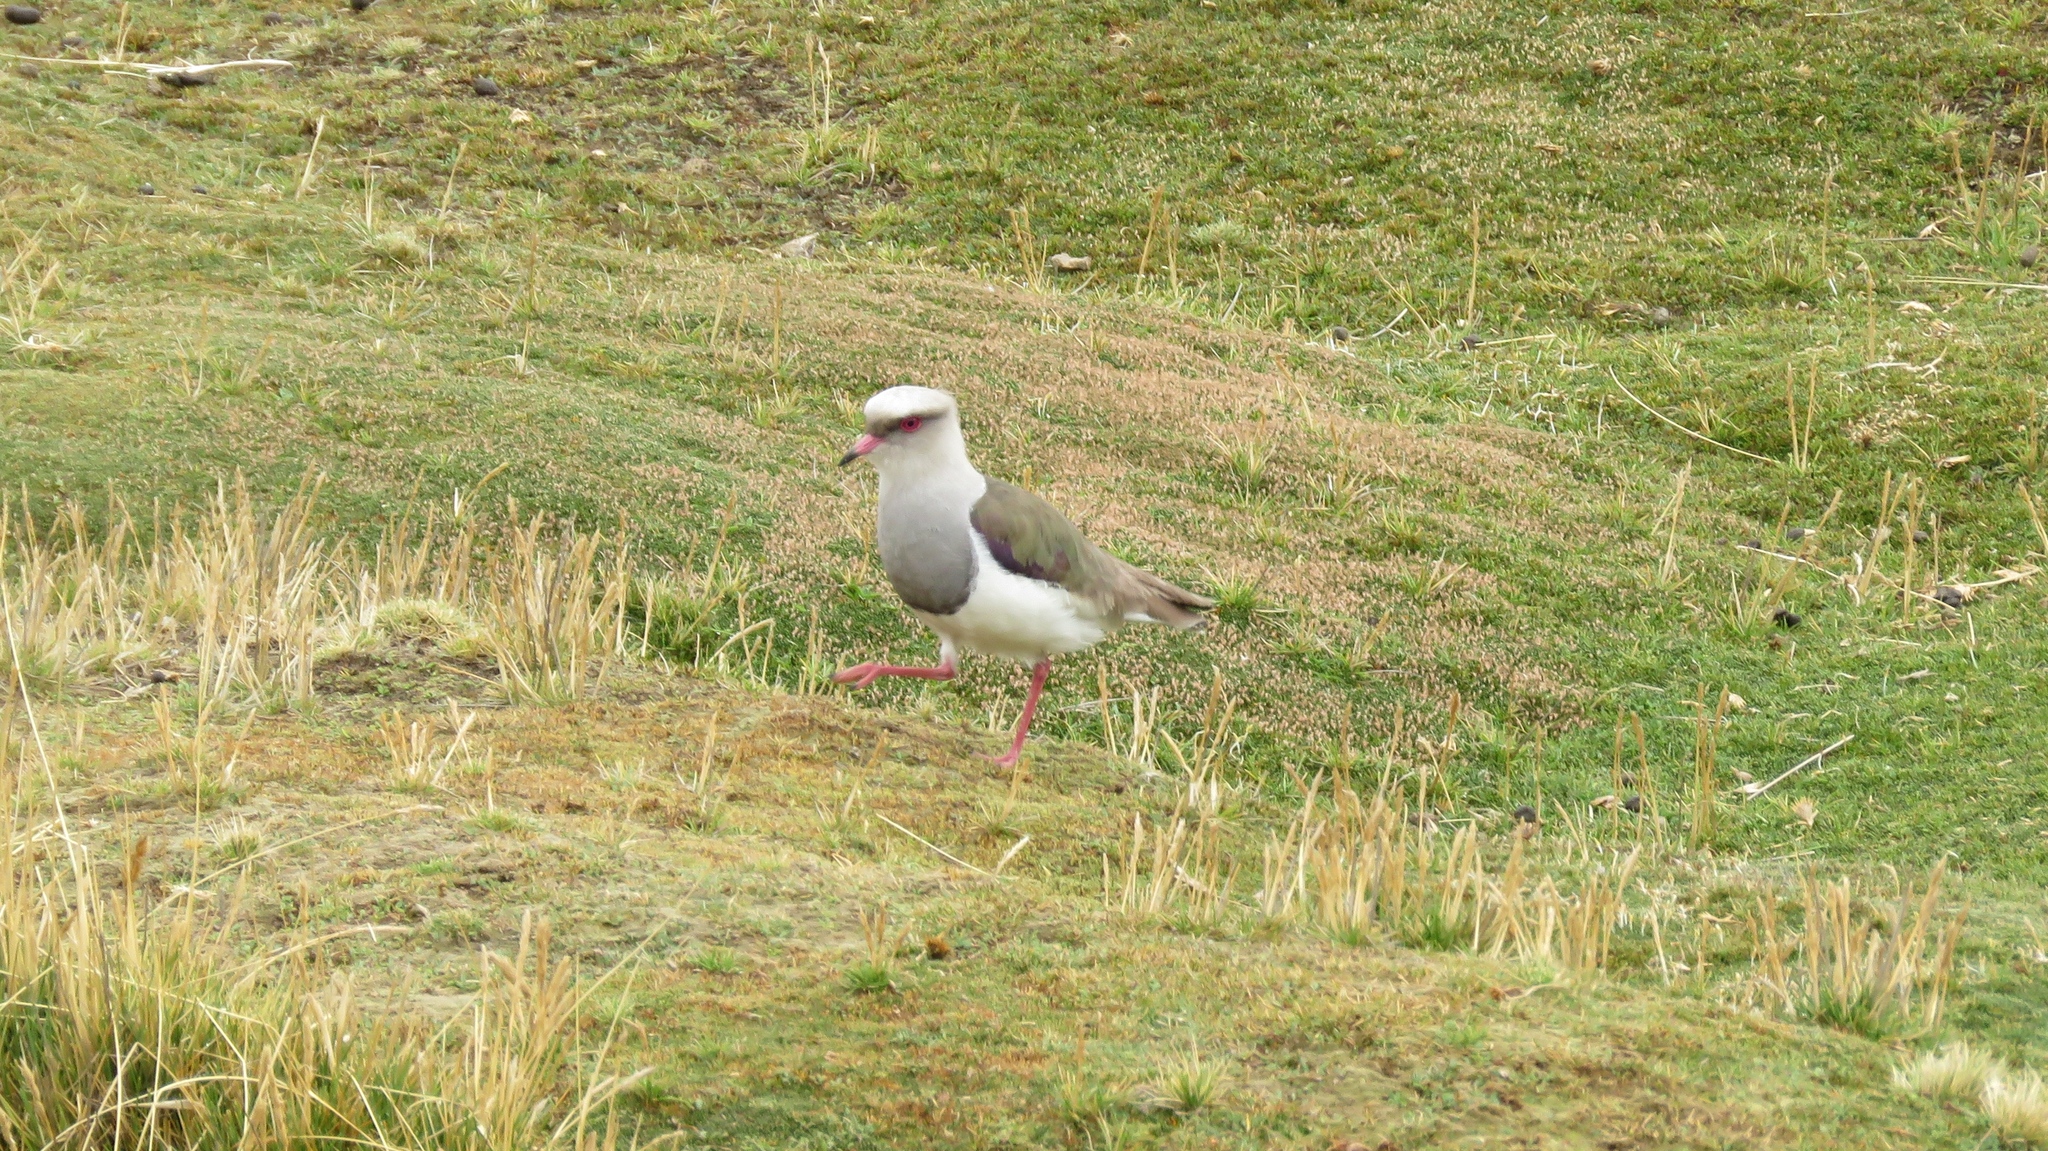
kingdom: Animalia
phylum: Chordata
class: Aves
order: Charadriiformes
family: Charadriidae
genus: Vanellus
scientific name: Vanellus resplendens
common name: Andean lapwing
